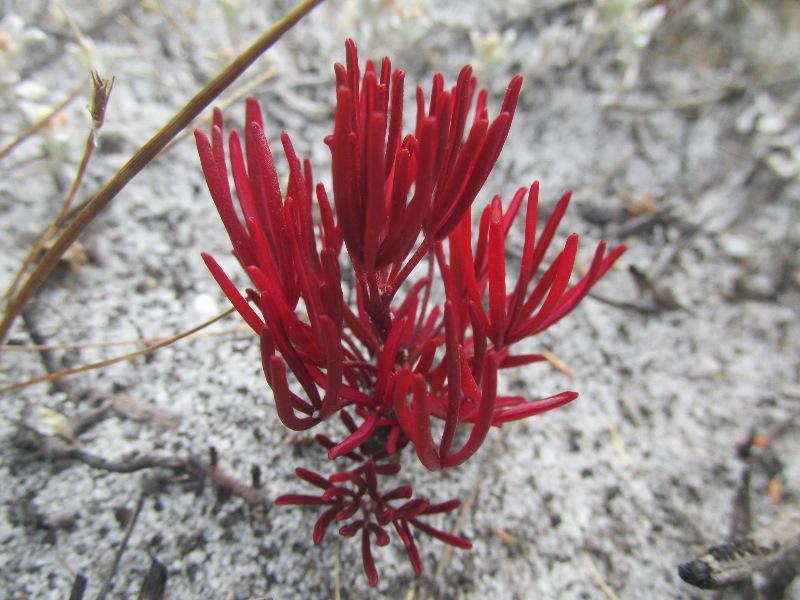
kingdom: Plantae
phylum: Tracheophyta
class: Magnoliopsida
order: Oxalidales
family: Oxalidaceae
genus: Oxalis
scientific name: Oxalis polyphylla
